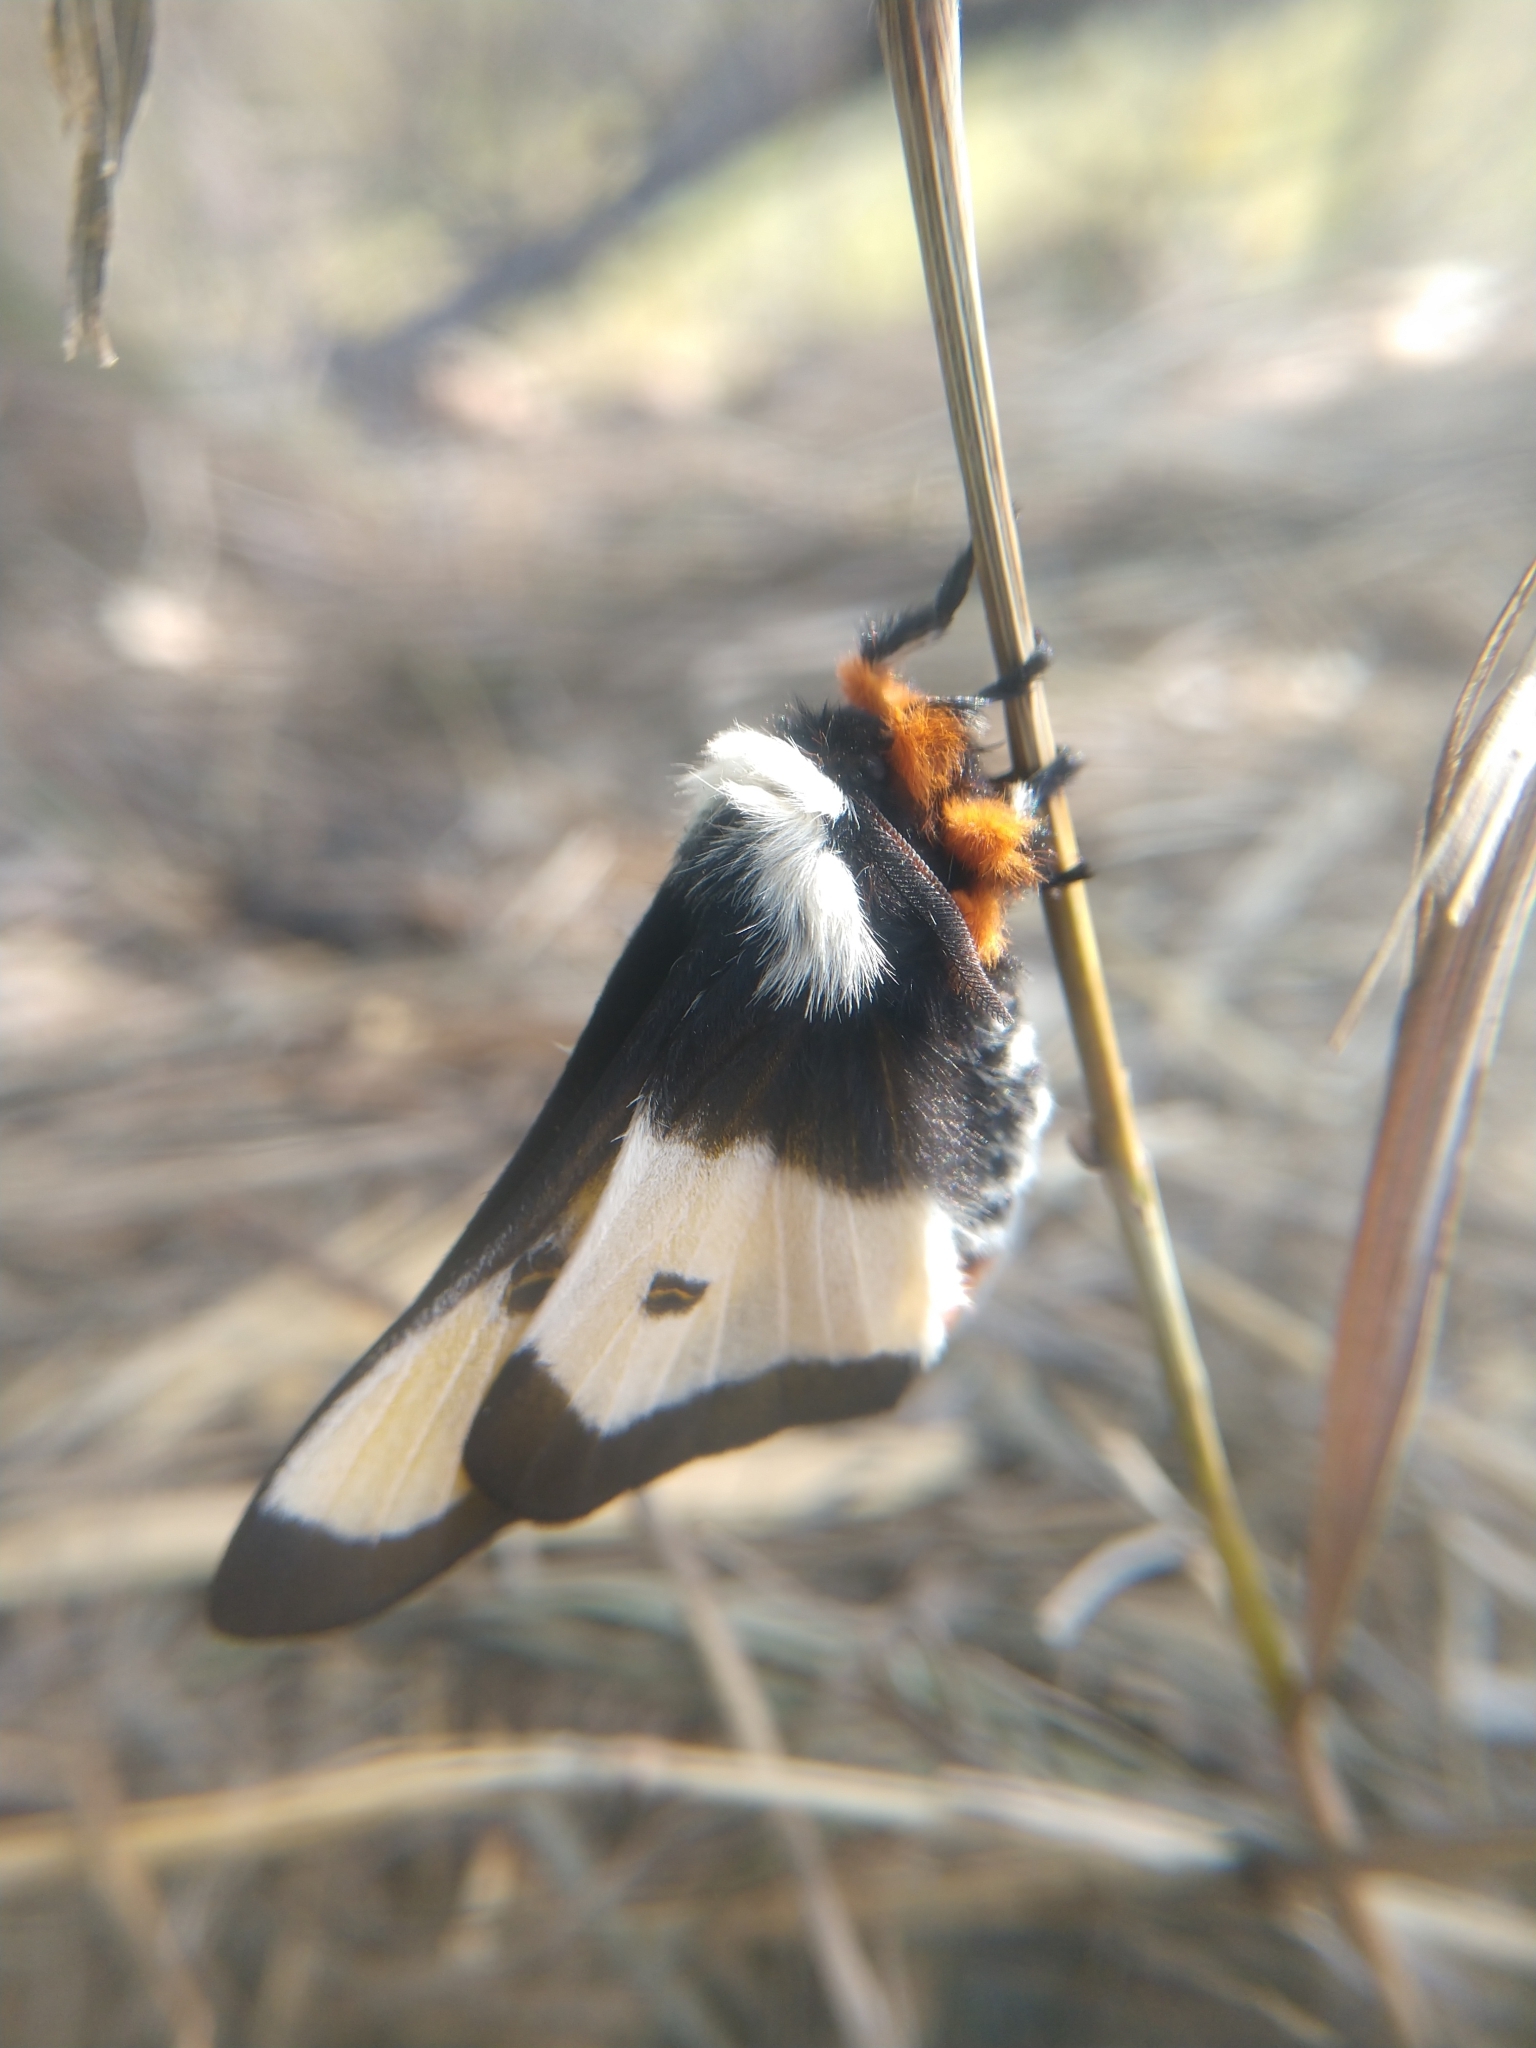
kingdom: Animalia
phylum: Arthropoda
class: Insecta
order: Lepidoptera
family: Saturniidae
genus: Hemileuca
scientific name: Hemileuca nevadensis
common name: Nevada buckmoth
